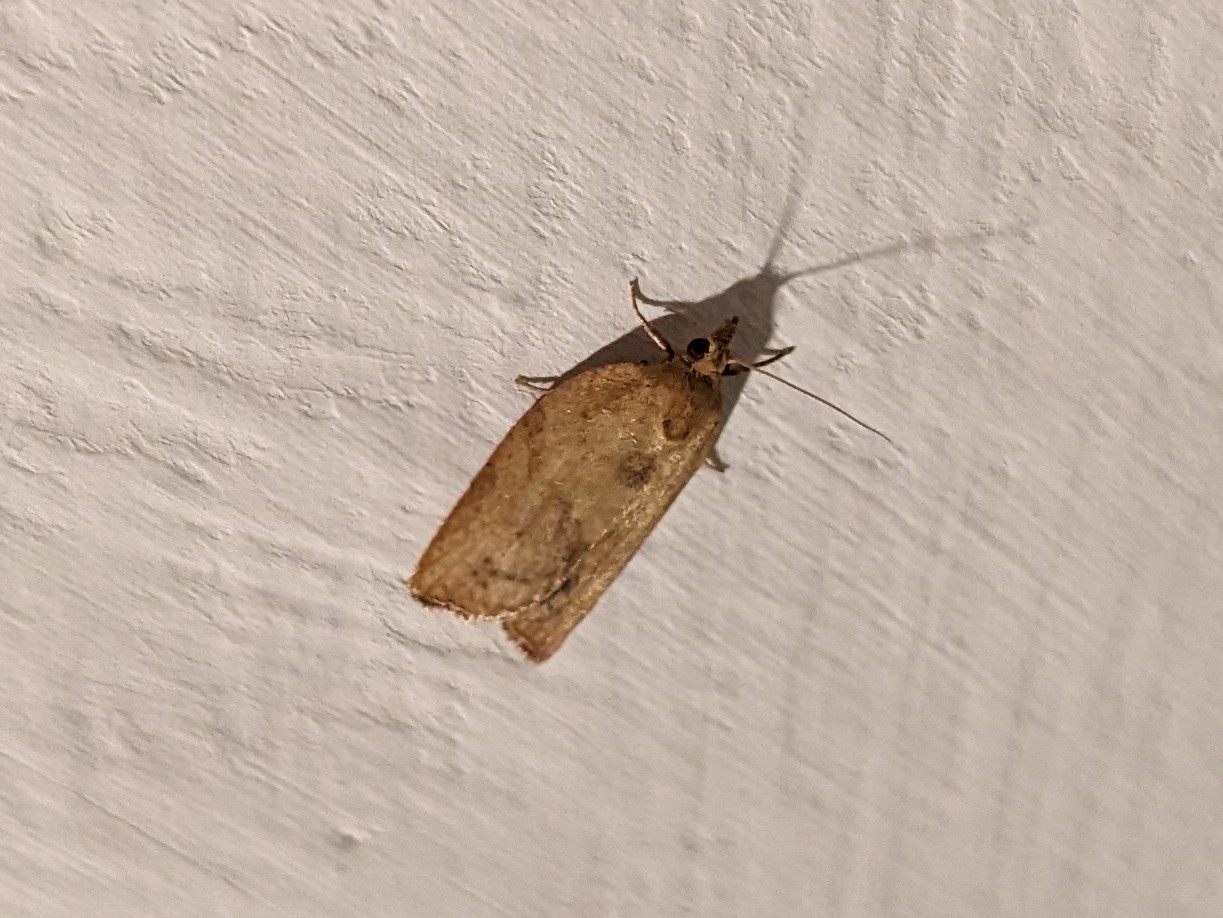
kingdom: Animalia
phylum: Arthropoda
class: Insecta
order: Lepidoptera
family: Tortricidae
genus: Epiphyas
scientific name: Epiphyas postvittana
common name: Light brown apple moth
